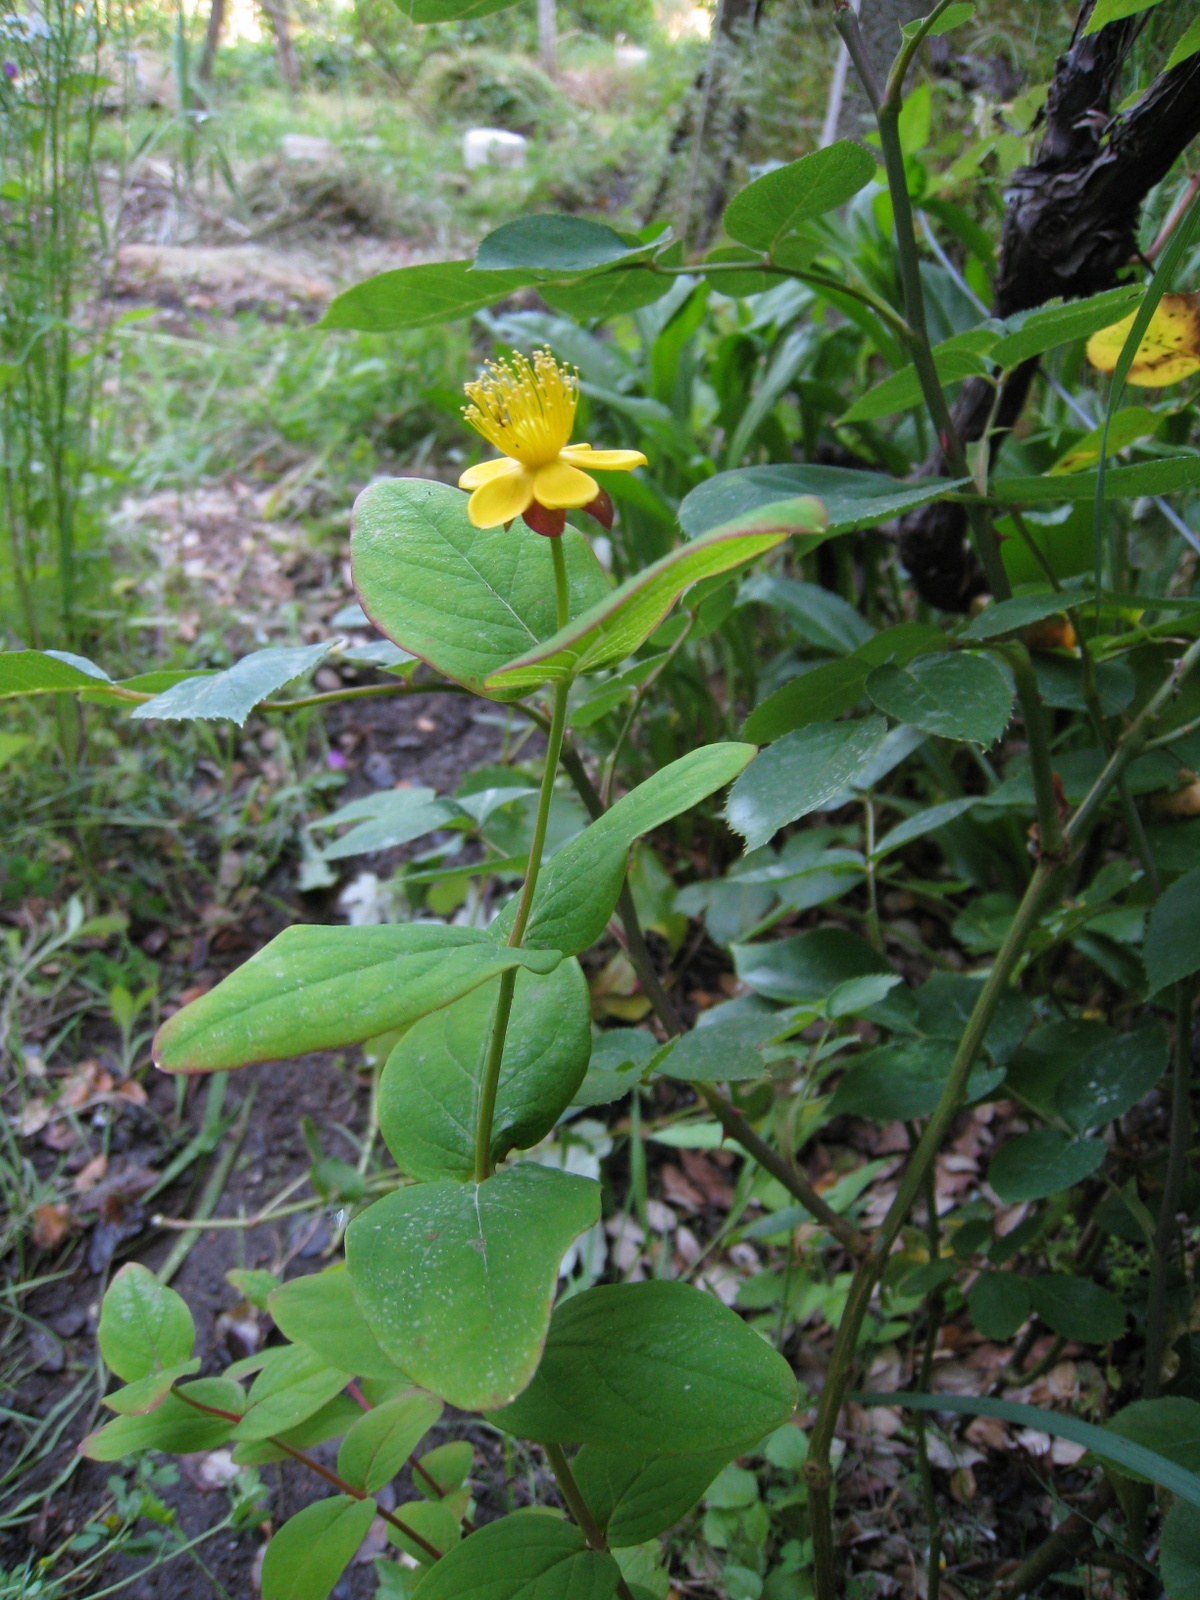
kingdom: Plantae
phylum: Tracheophyta
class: Magnoliopsida
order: Malpighiales
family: Hypericaceae
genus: Hypericum
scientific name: Hypericum androsaemum
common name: Sweet-amber
